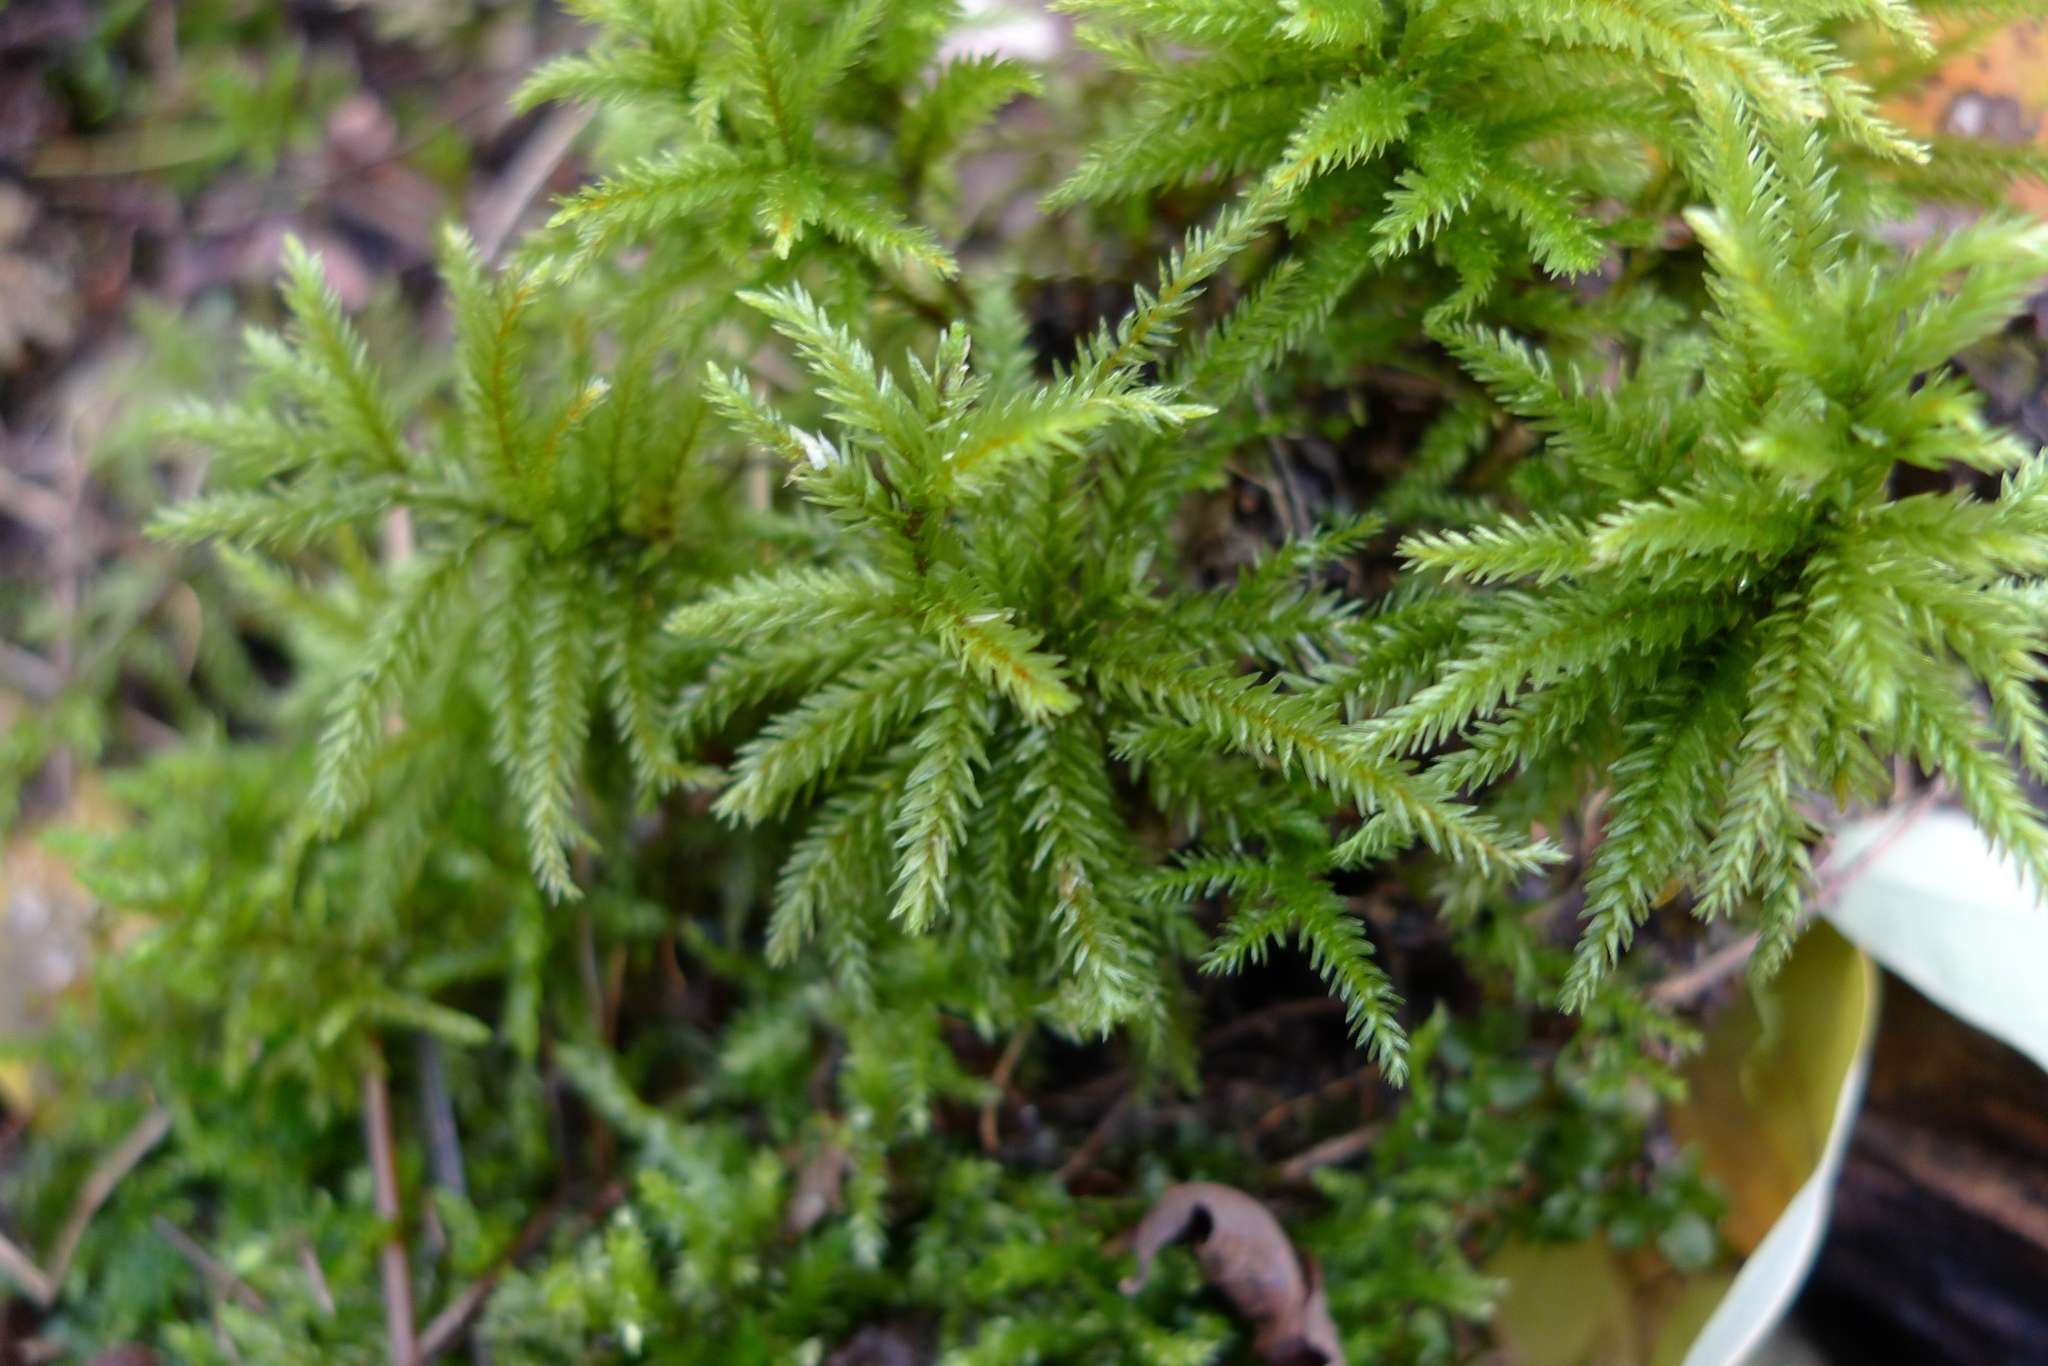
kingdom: Plantae
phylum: Bryophyta
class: Bryopsida
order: Hypnales
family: Climaciaceae
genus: Climacium
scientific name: Climacium dendroides
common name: Northern tree moss
